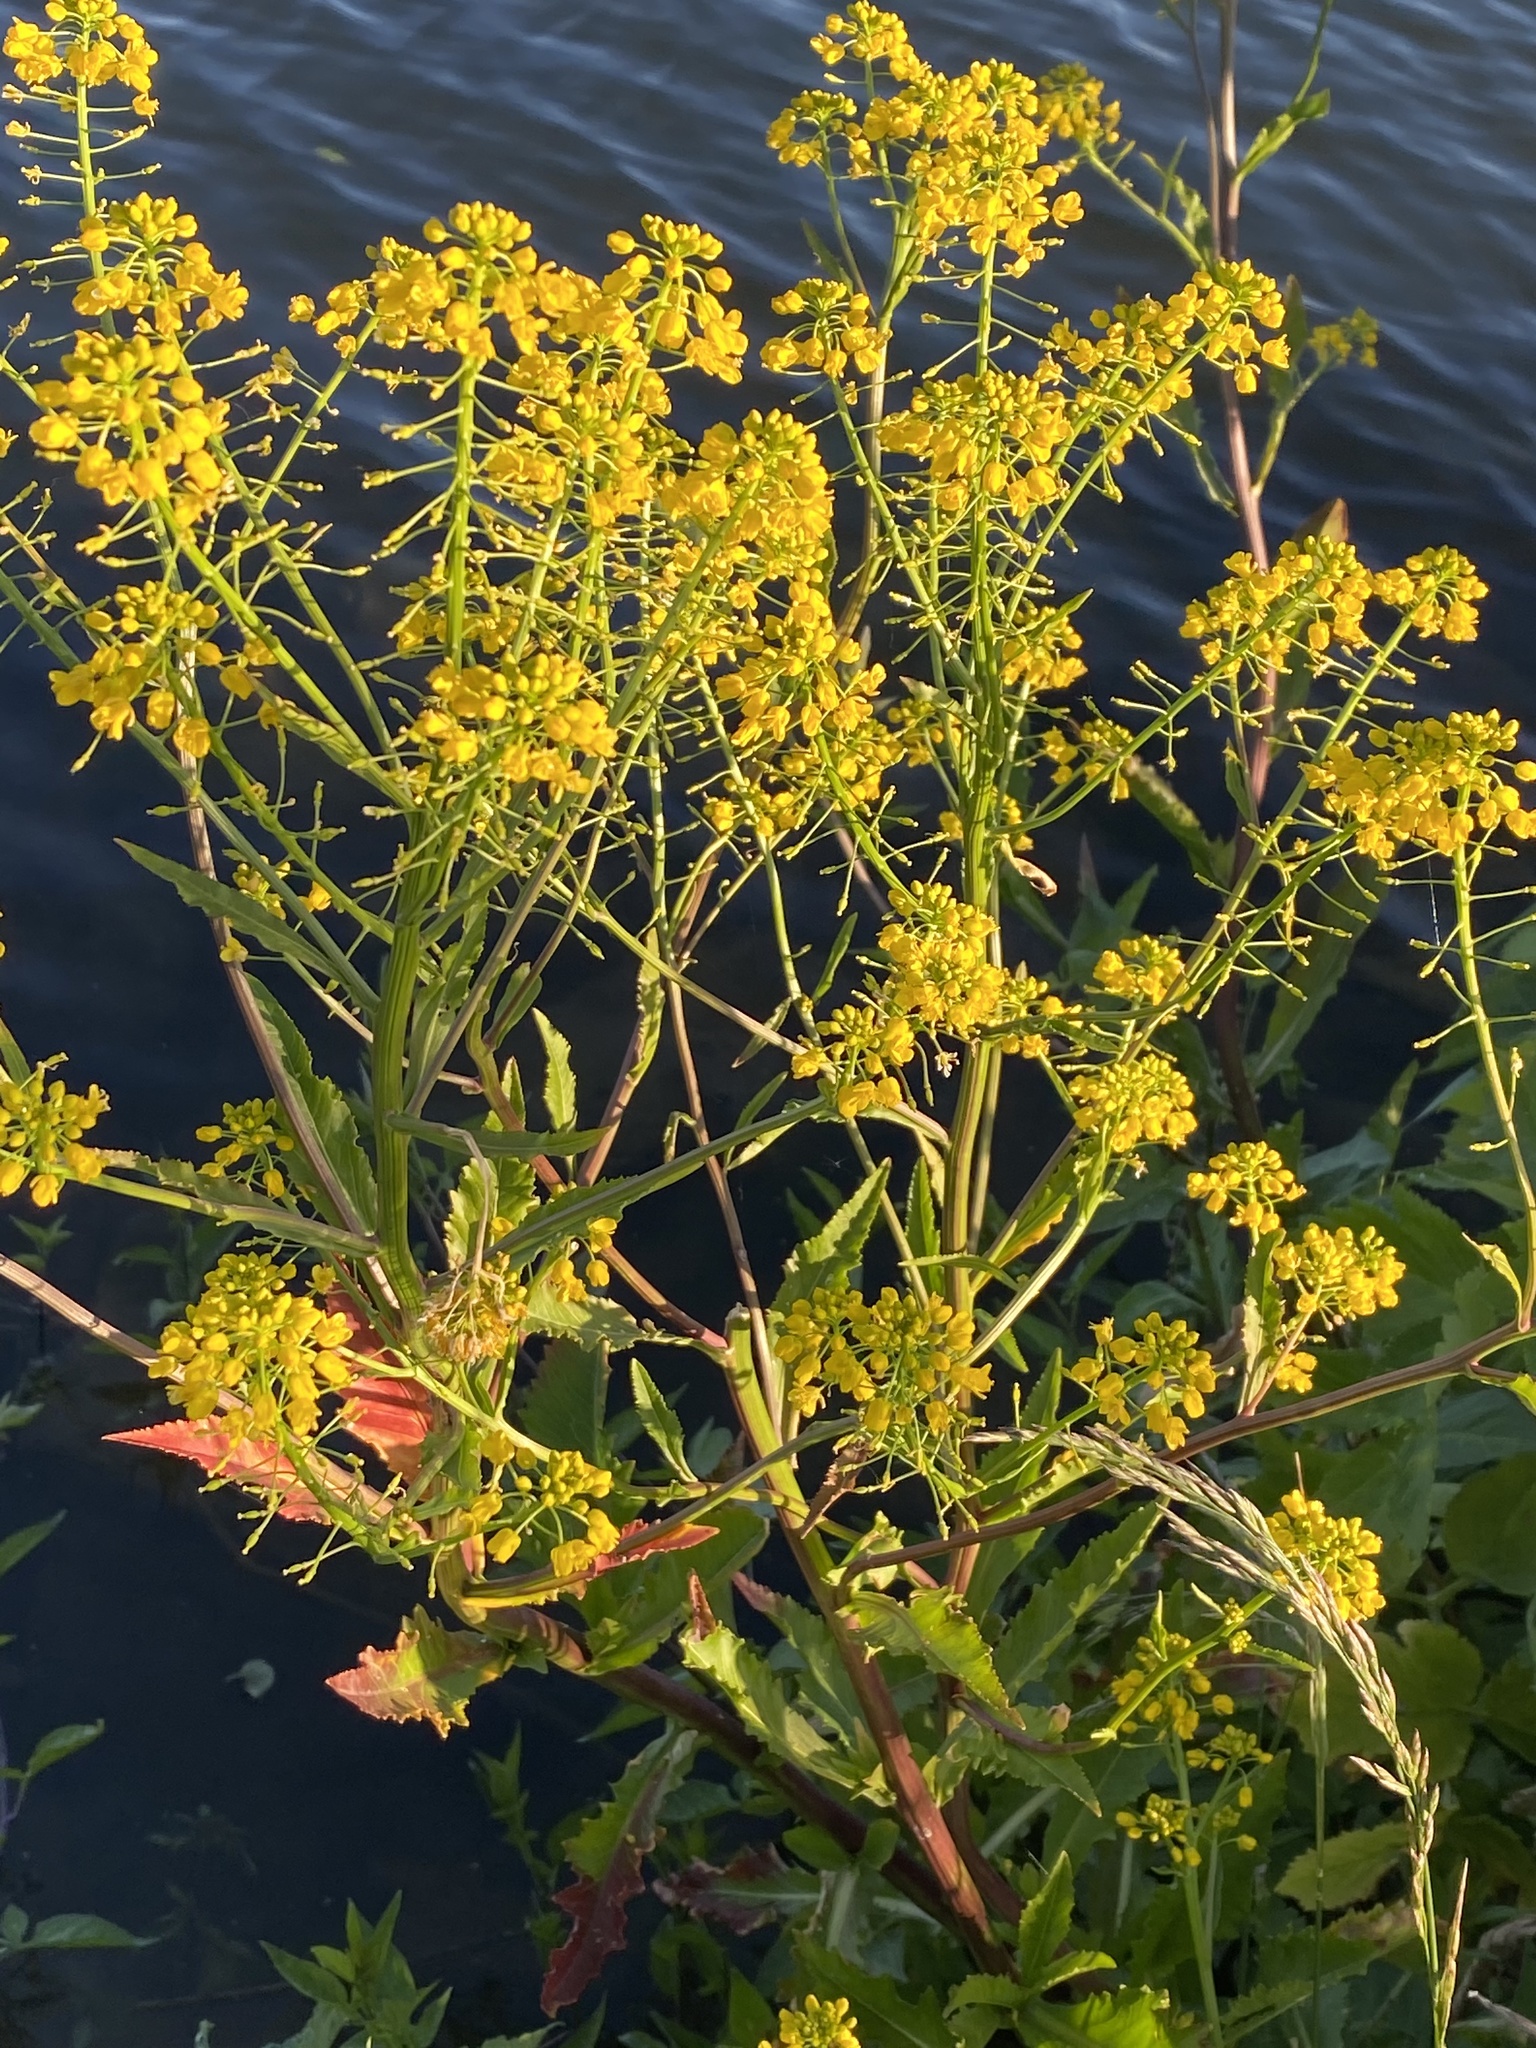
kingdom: Plantae
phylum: Tracheophyta
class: Magnoliopsida
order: Brassicales
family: Brassicaceae
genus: Rorippa
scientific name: Rorippa amphibia
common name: Great yellow-cress
